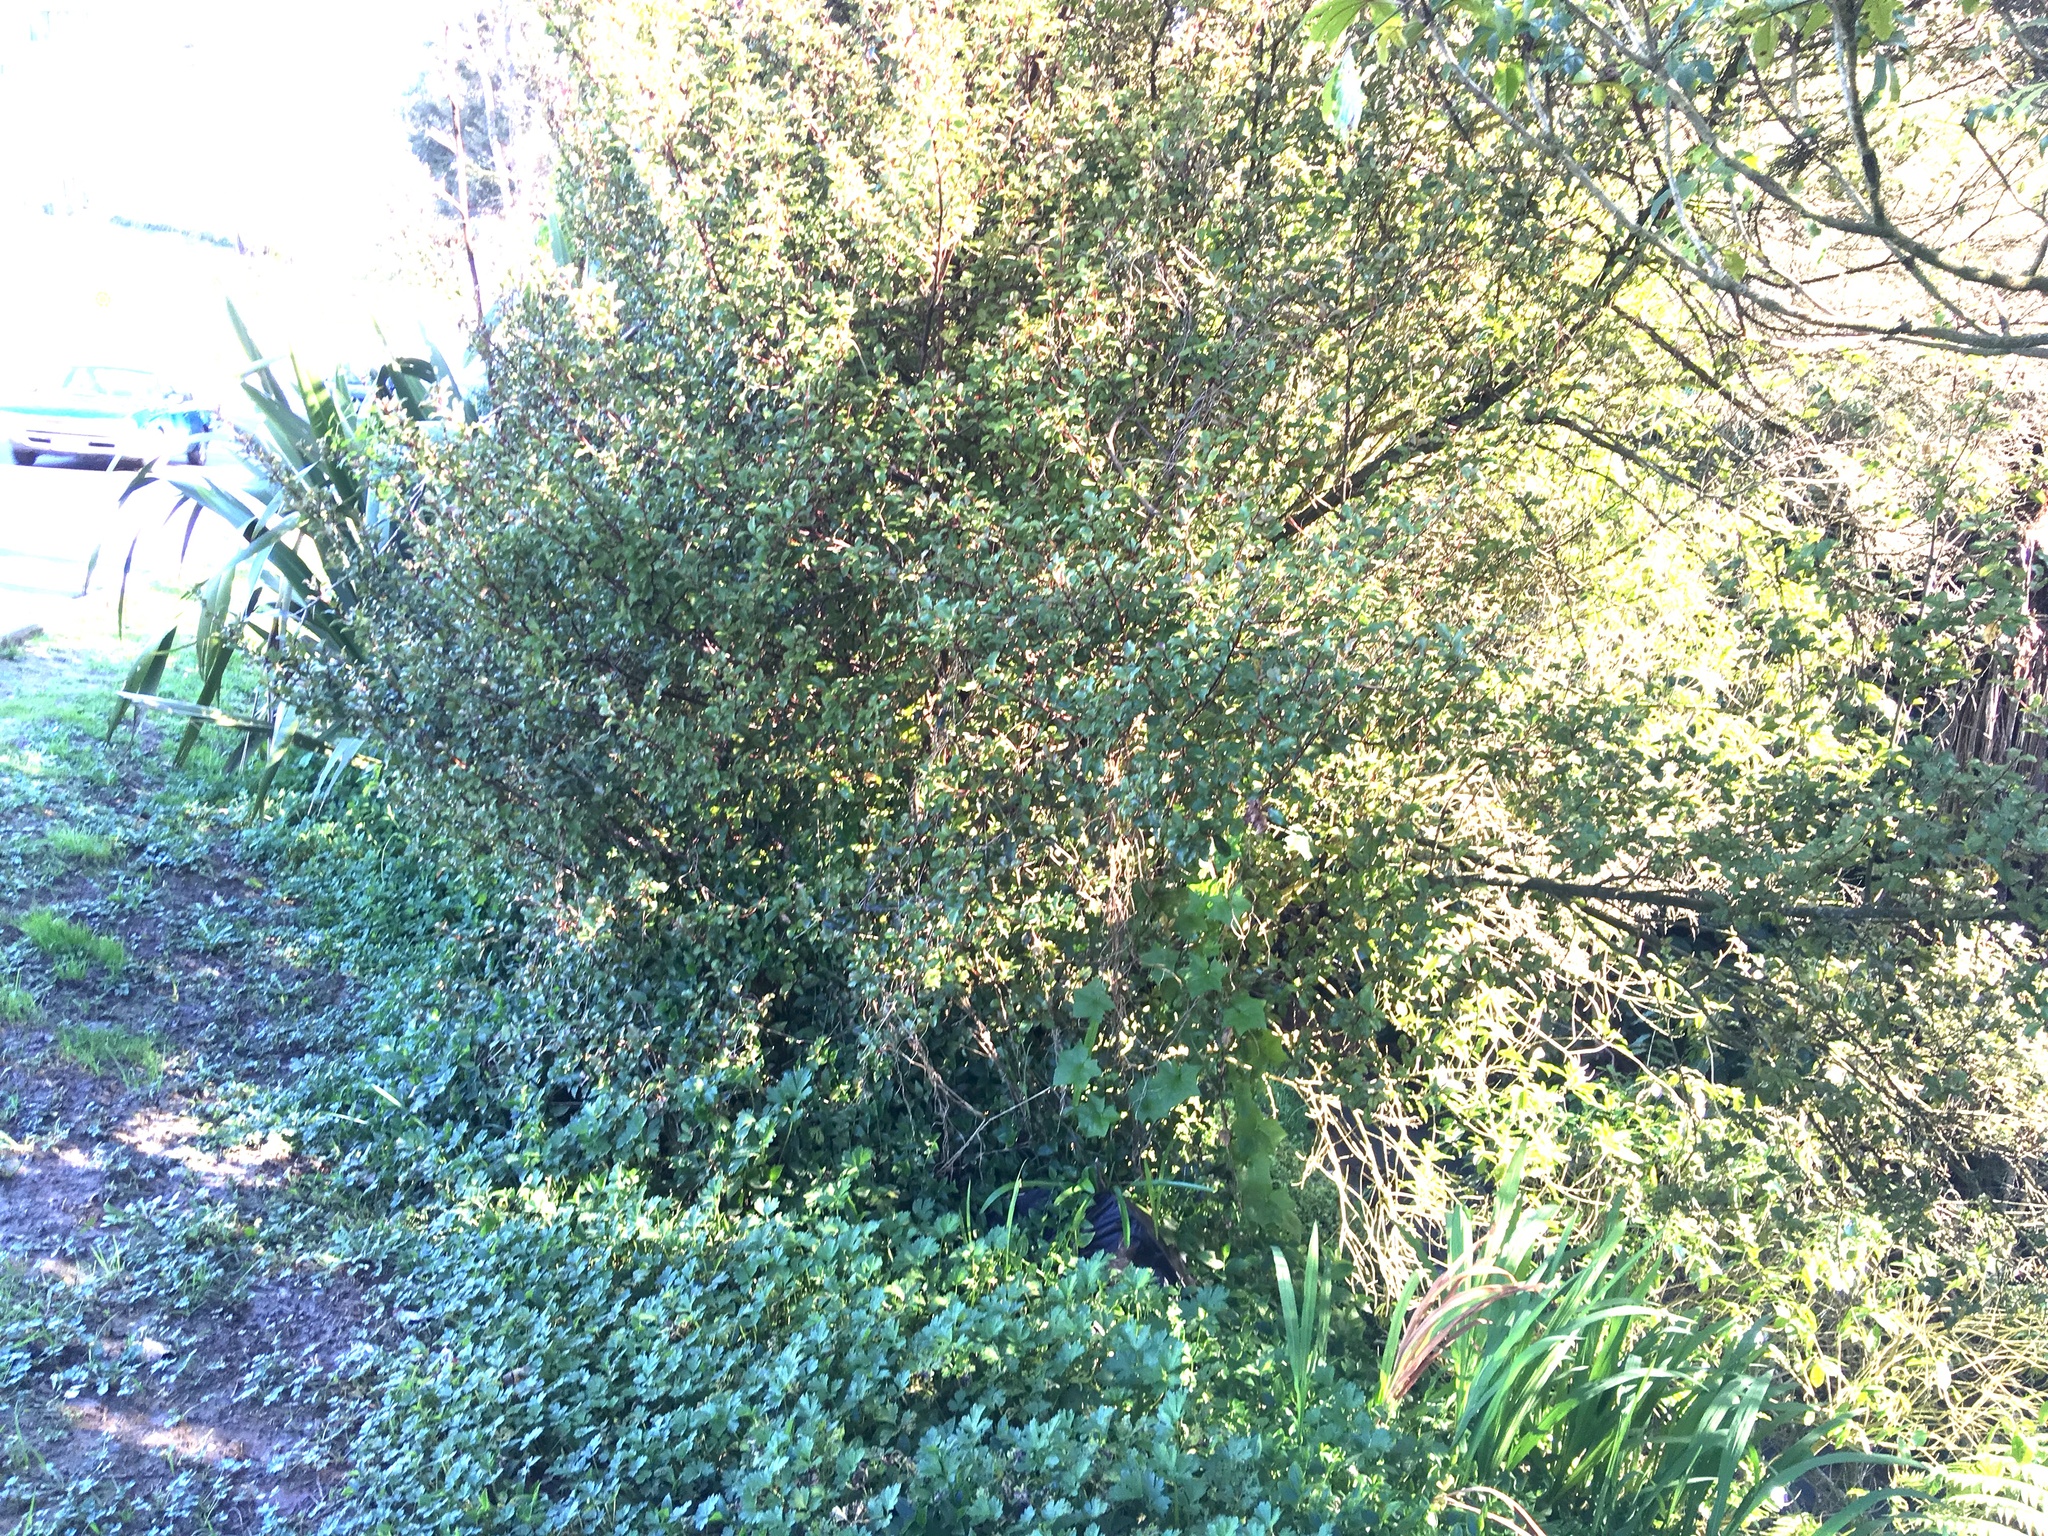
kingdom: Plantae
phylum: Tracheophyta
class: Magnoliopsida
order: Asterales
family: Asteraceae
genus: Delairea
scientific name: Delairea odorata
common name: Cape-ivy
